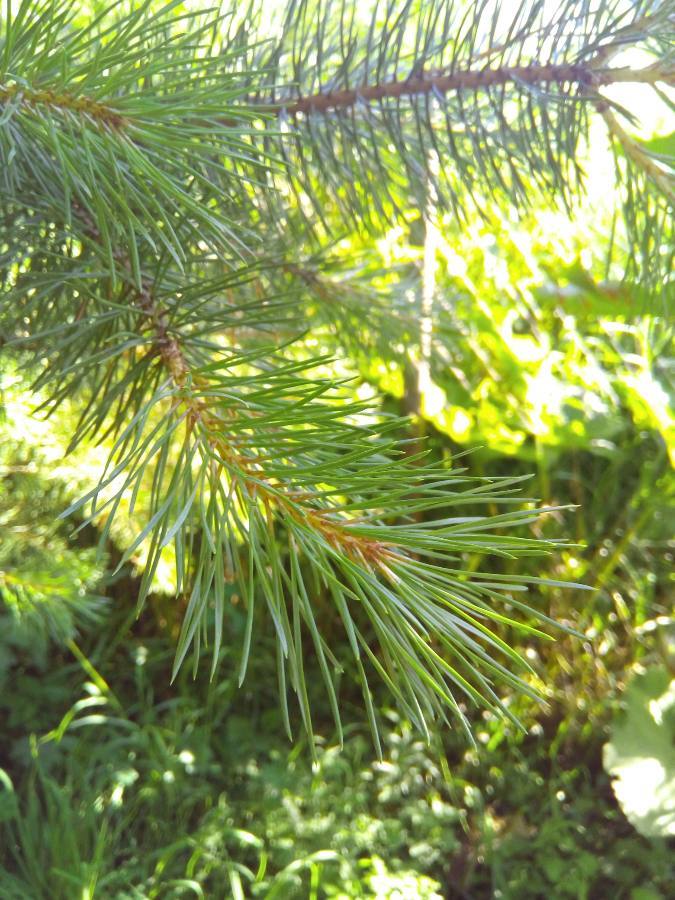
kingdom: Plantae
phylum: Tracheophyta
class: Pinopsida
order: Pinales
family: Pinaceae
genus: Pinus
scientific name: Pinus sylvestris
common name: Scots pine
